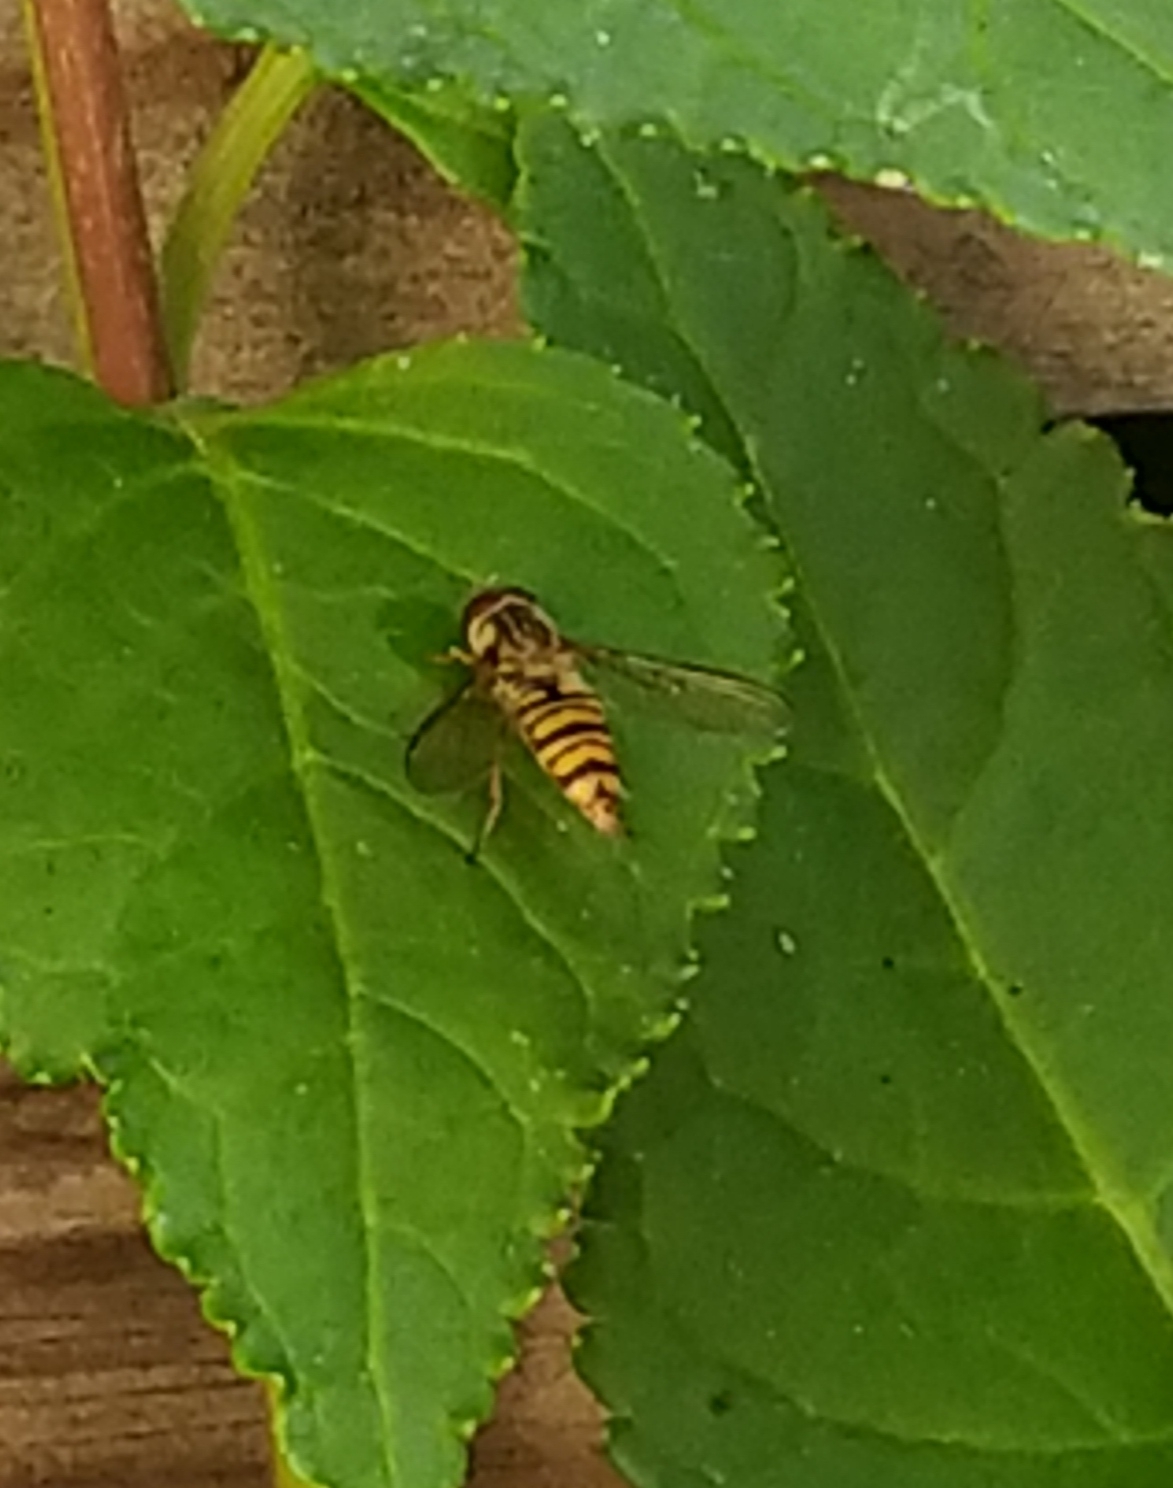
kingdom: Animalia
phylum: Arthropoda
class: Insecta
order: Diptera
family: Syrphidae
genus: Episyrphus
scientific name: Episyrphus balteatus
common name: Marmalade hoverfly
